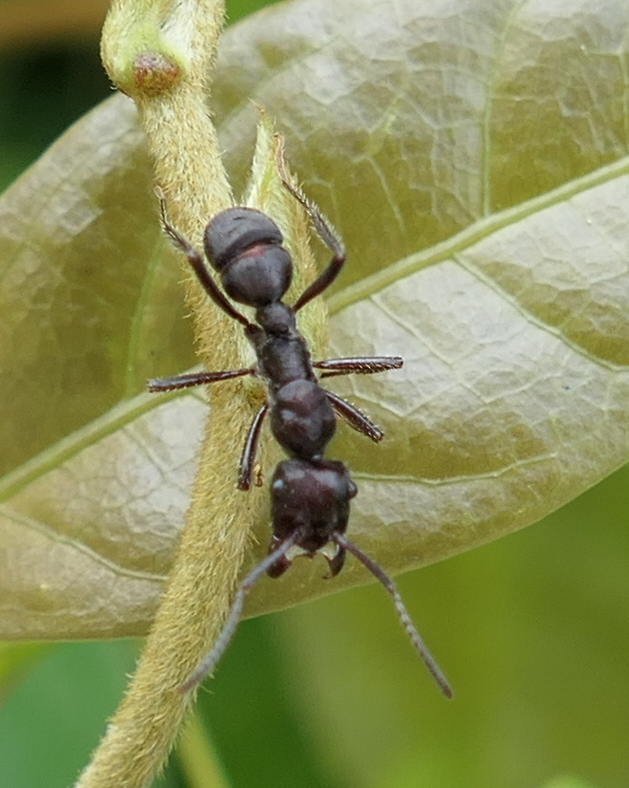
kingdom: Animalia
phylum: Arthropoda
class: Insecta
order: Hymenoptera
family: Formicidae
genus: Ectatomma
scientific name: Ectatomma brunneum
